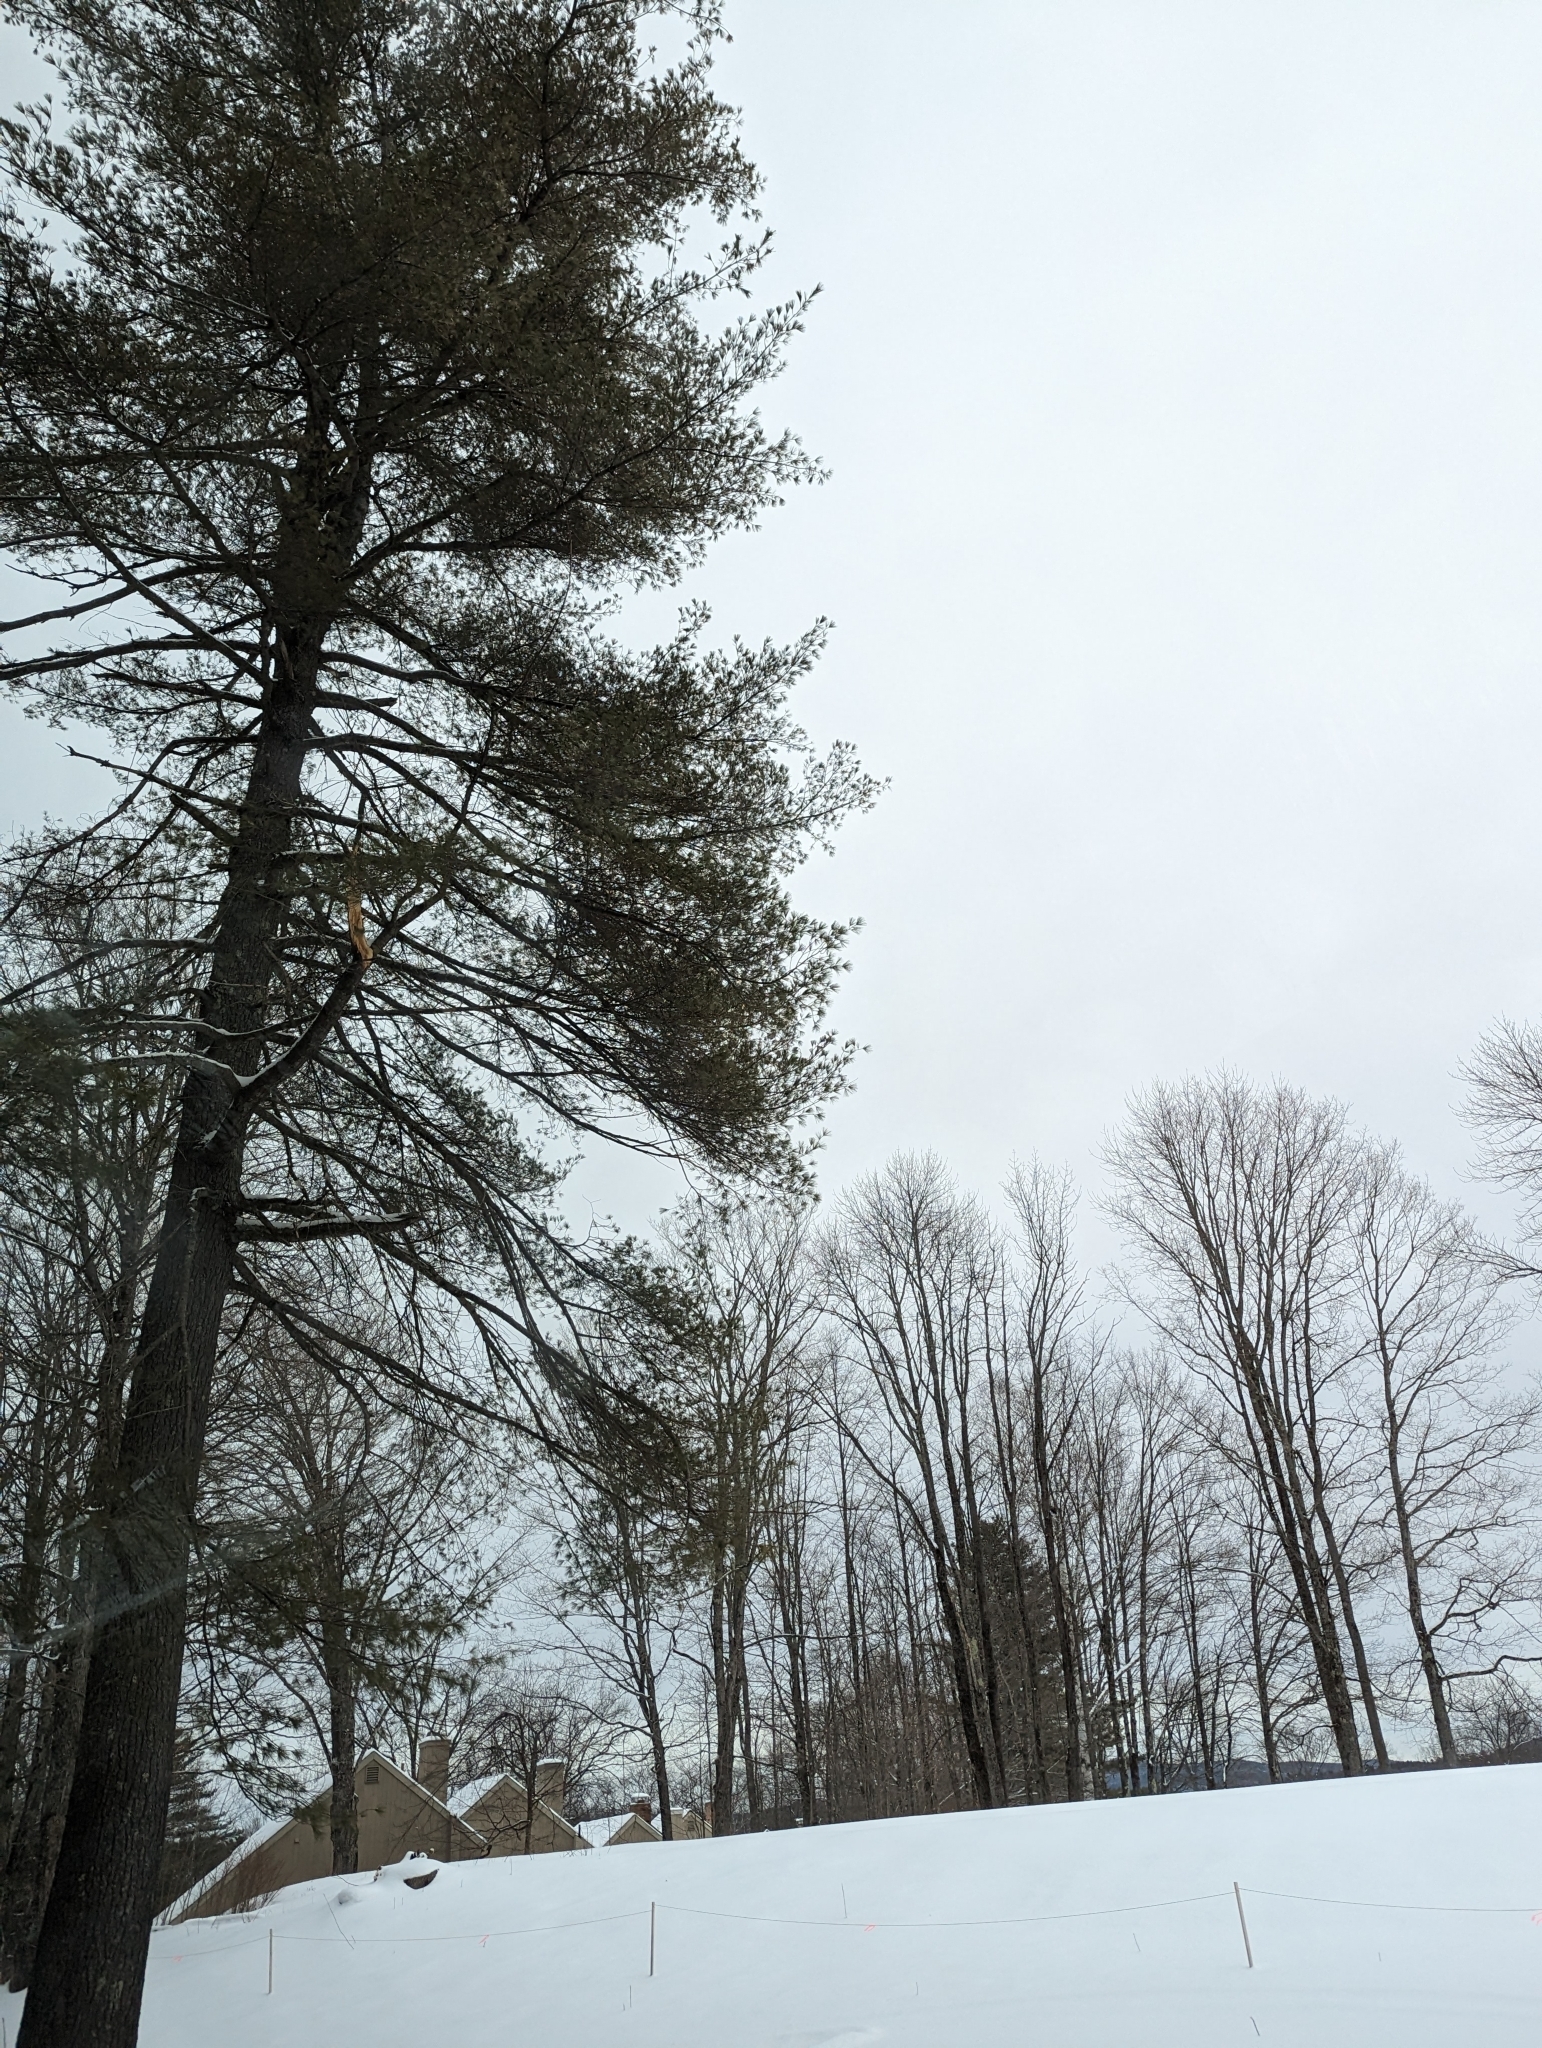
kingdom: Plantae
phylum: Tracheophyta
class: Pinopsida
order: Pinales
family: Pinaceae
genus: Pinus
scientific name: Pinus strobus
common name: Weymouth pine
